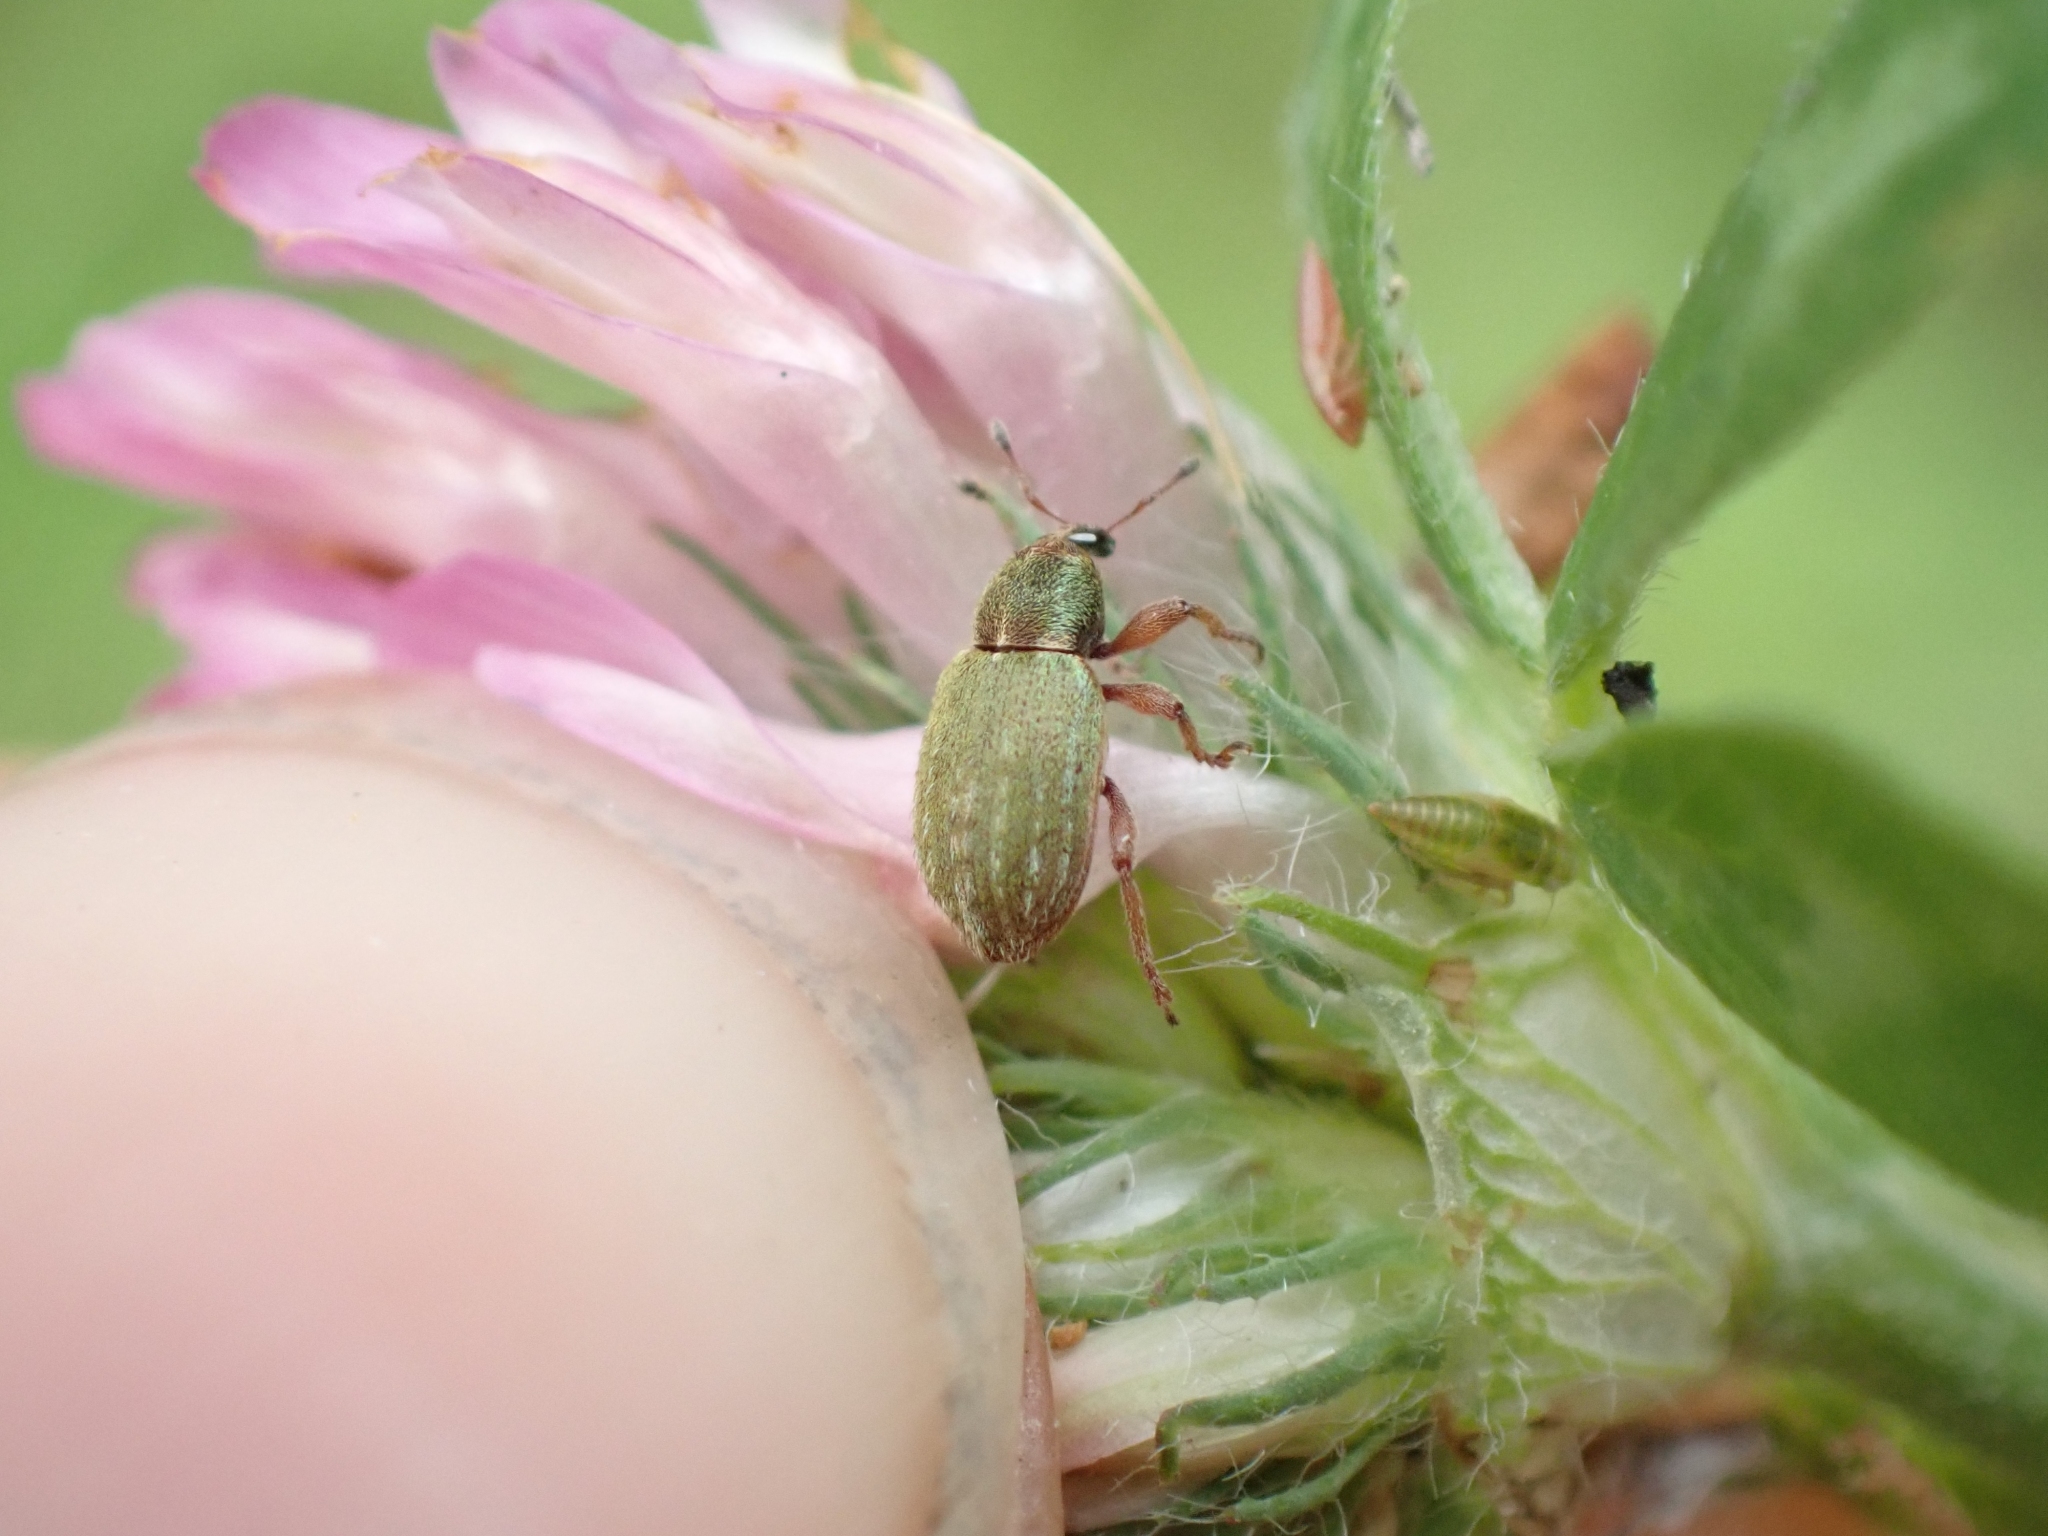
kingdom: Animalia
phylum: Arthropoda
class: Insecta
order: Coleoptera
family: Curculionidae
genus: Hypera
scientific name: Hypera nigrirostris
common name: Black-beaked green weevil
